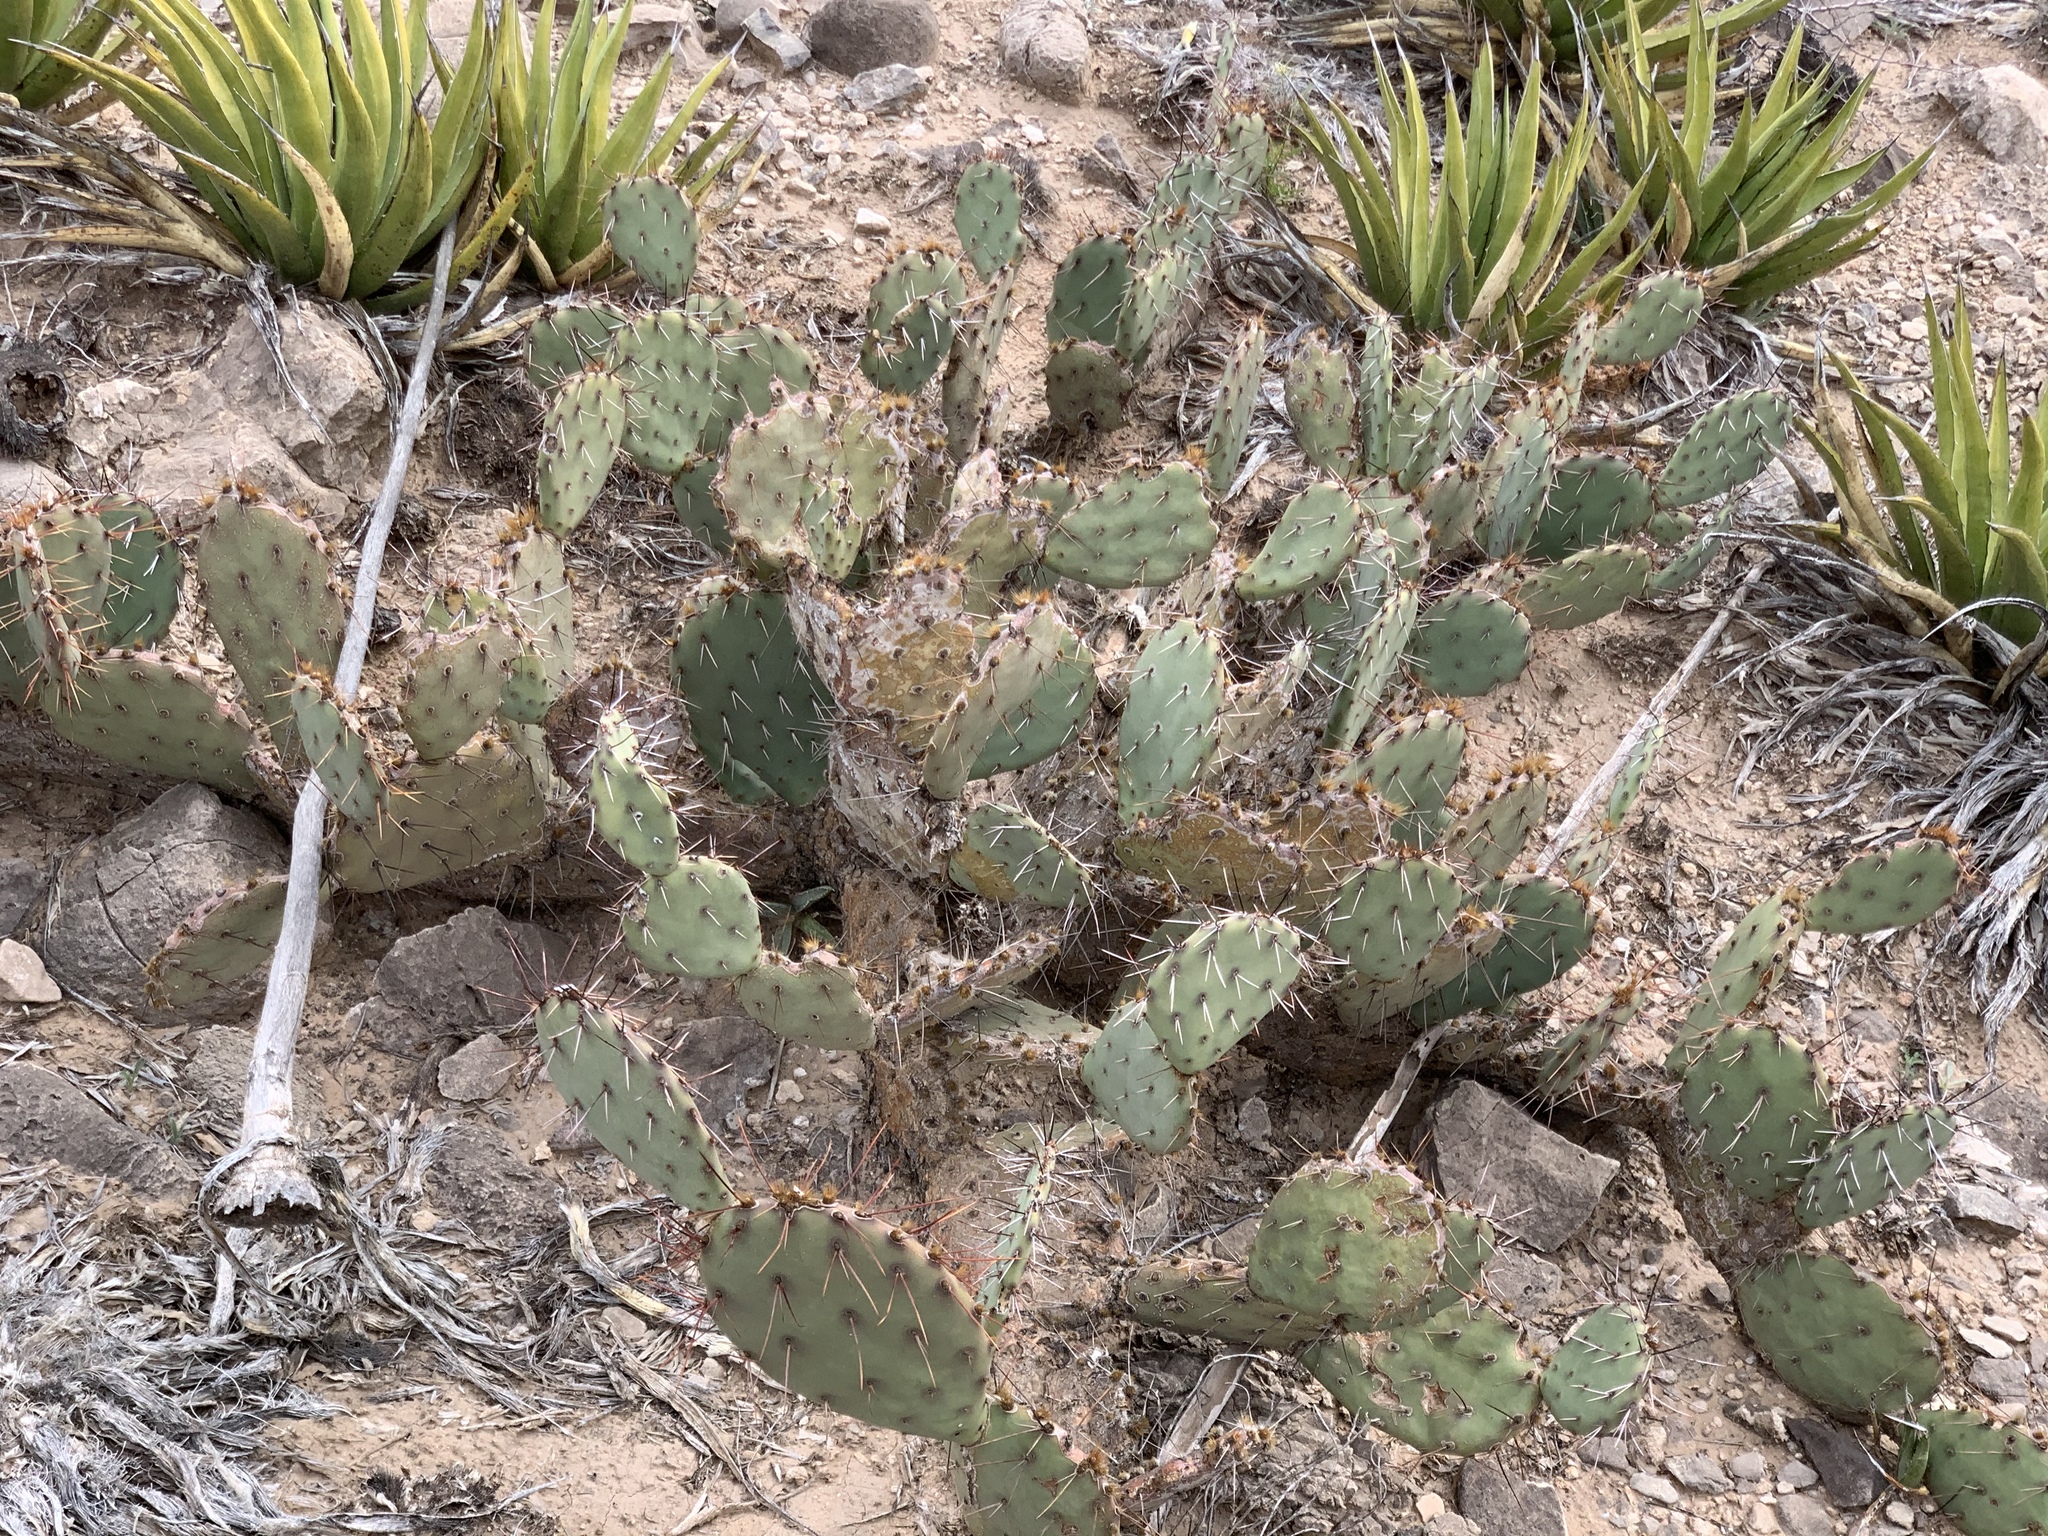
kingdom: Plantae
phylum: Tracheophyta
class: Magnoliopsida
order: Caryophyllales
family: Cactaceae
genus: Opuntia
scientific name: Opuntia phaeacantha
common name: New mexico prickly-pear
